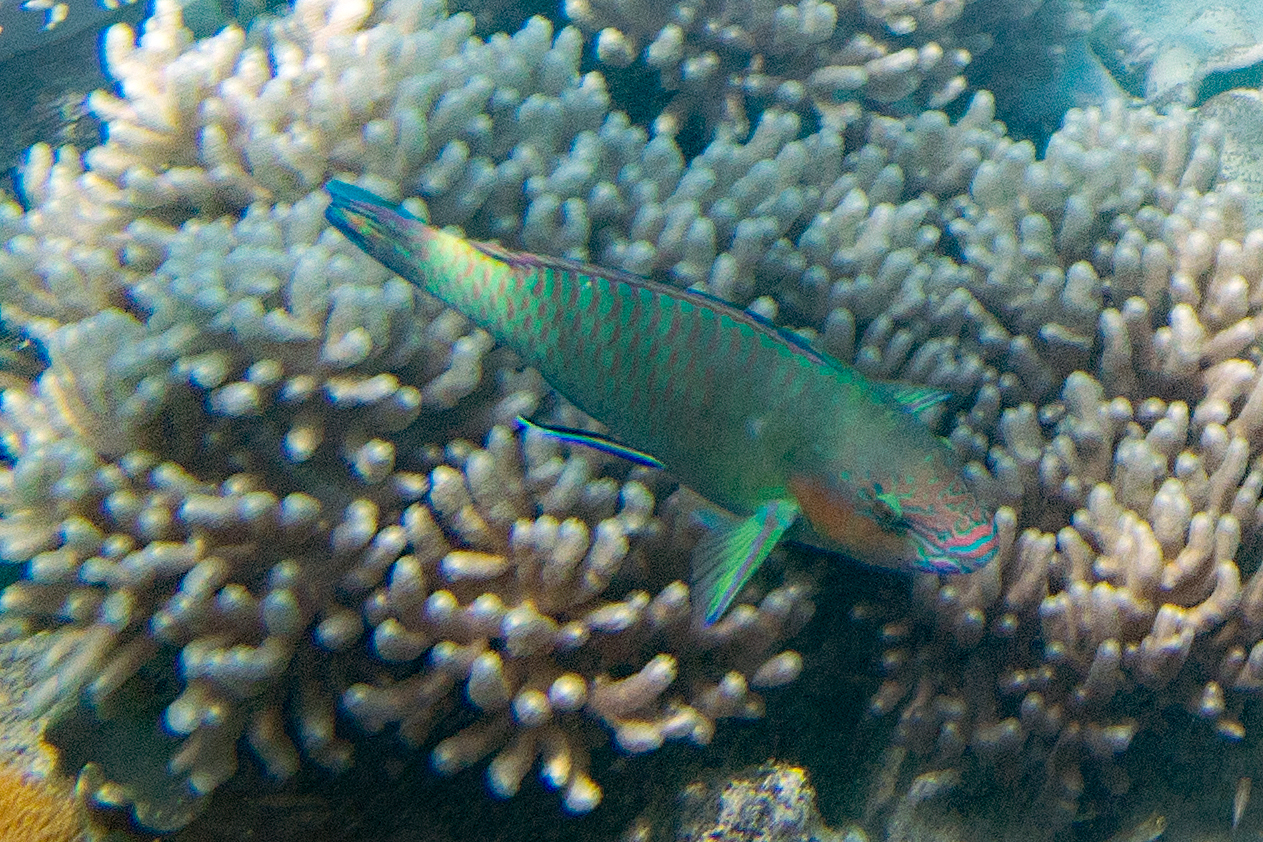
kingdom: Animalia
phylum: Chordata
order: Perciformes
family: Scaridae
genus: Scarus
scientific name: Scarus rivulatus
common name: Surf parrotfish
